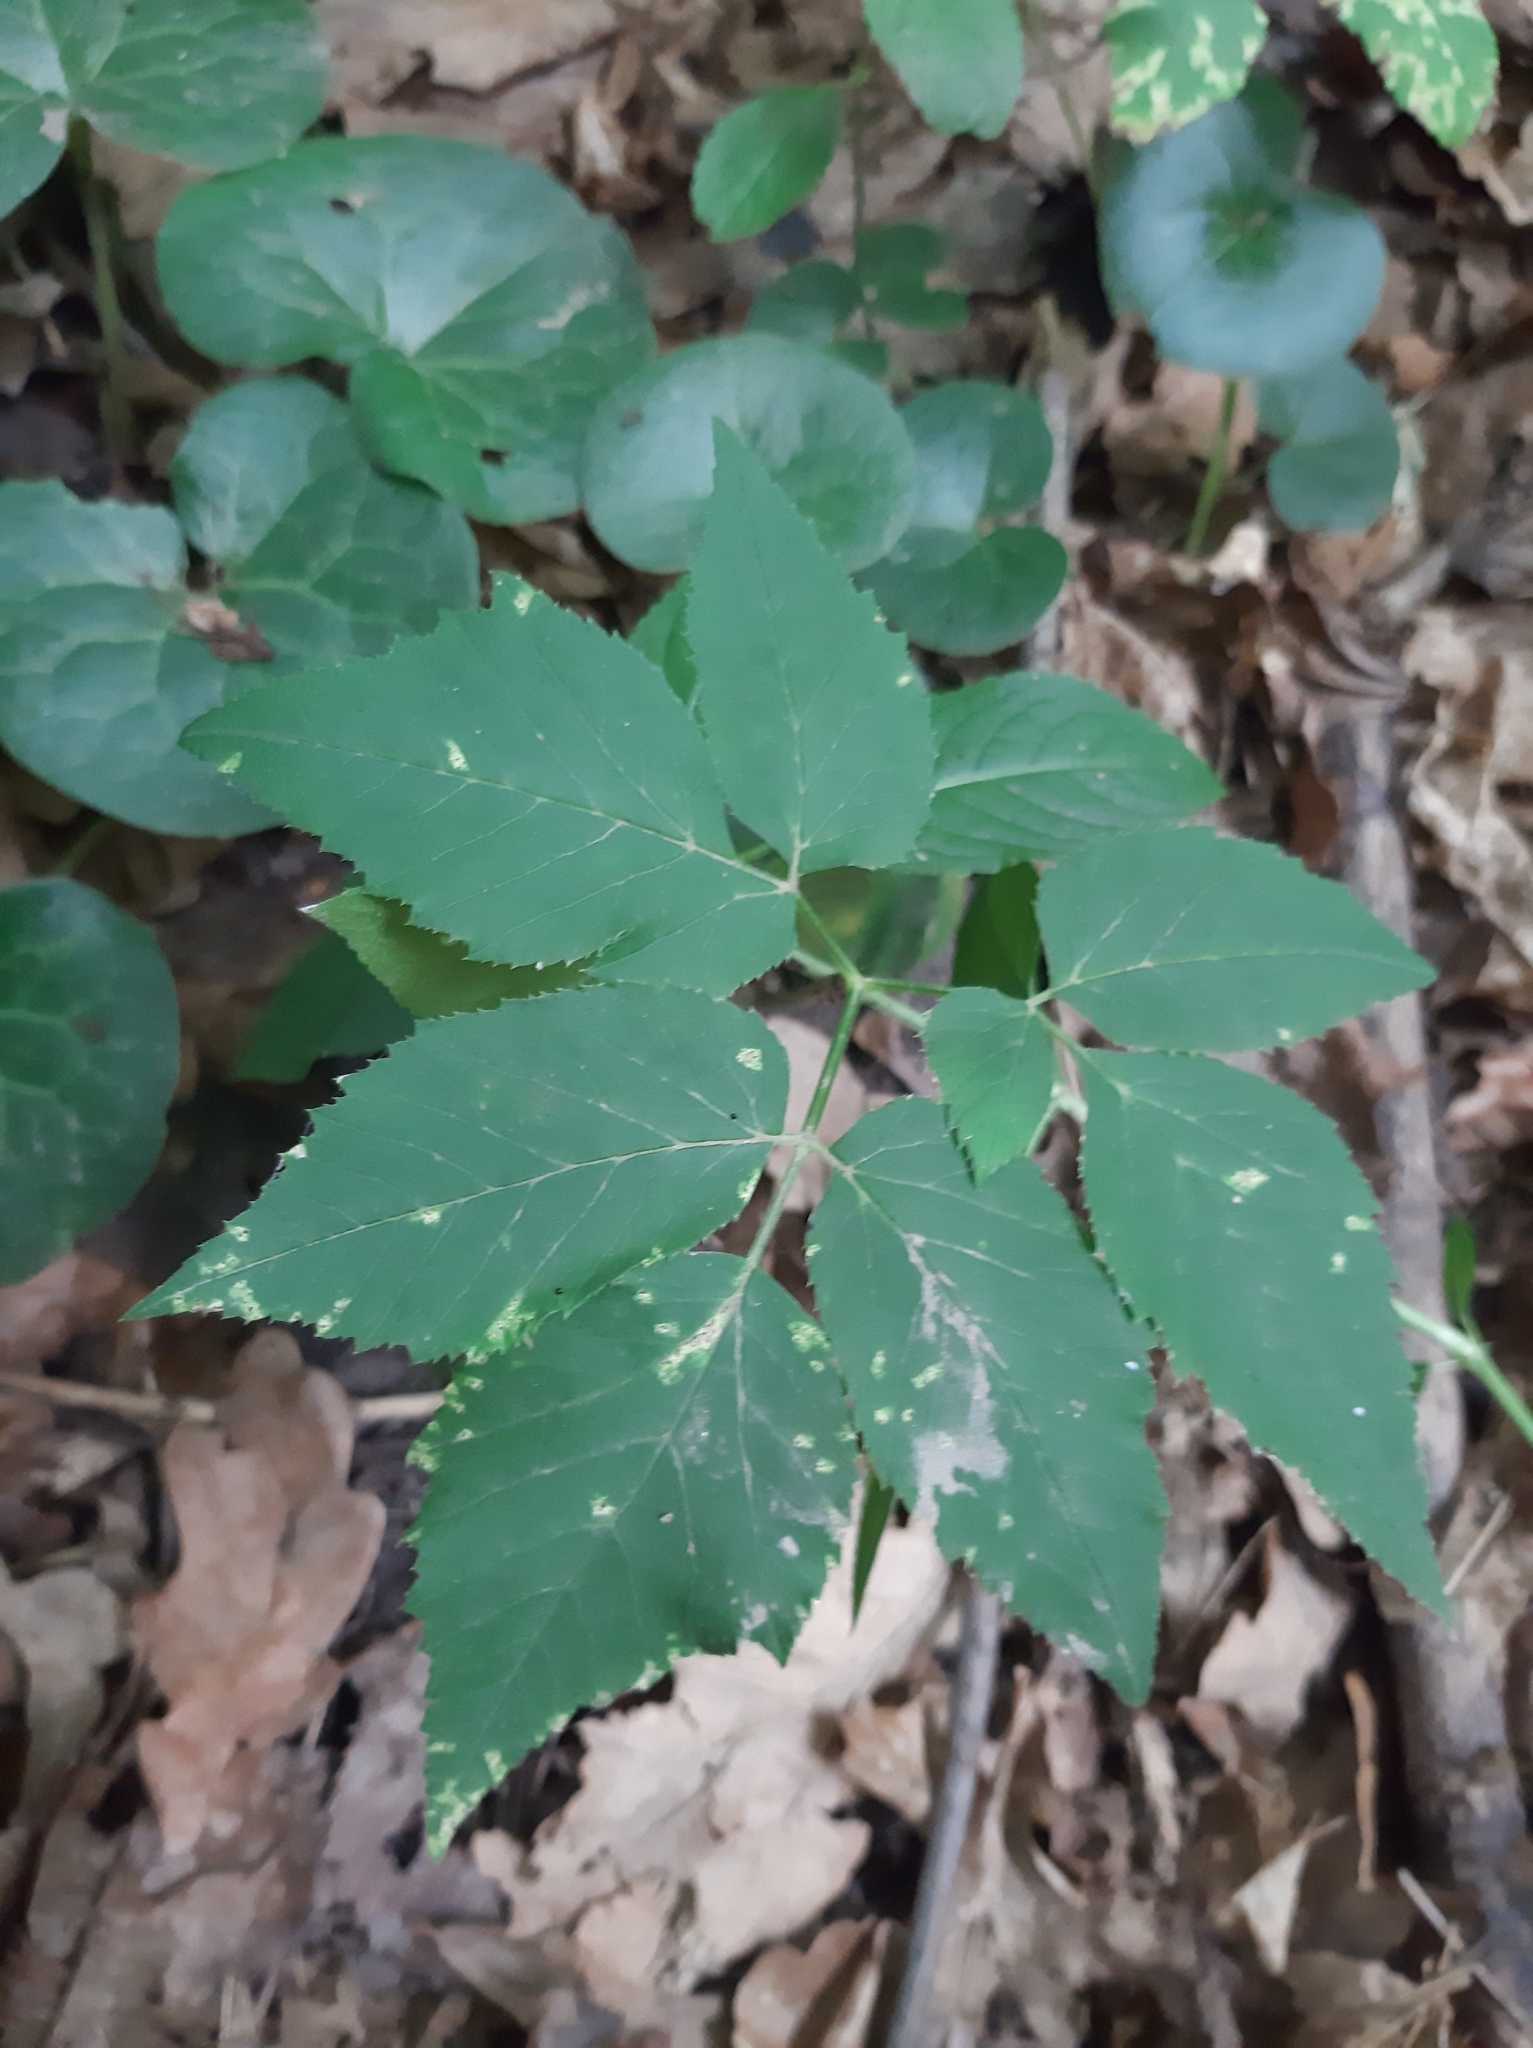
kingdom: Plantae
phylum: Tracheophyta
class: Magnoliopsida
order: Apiales
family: Apiaceae
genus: Aegopodium
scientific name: Aegopodium podagraria
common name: Ground-elder
